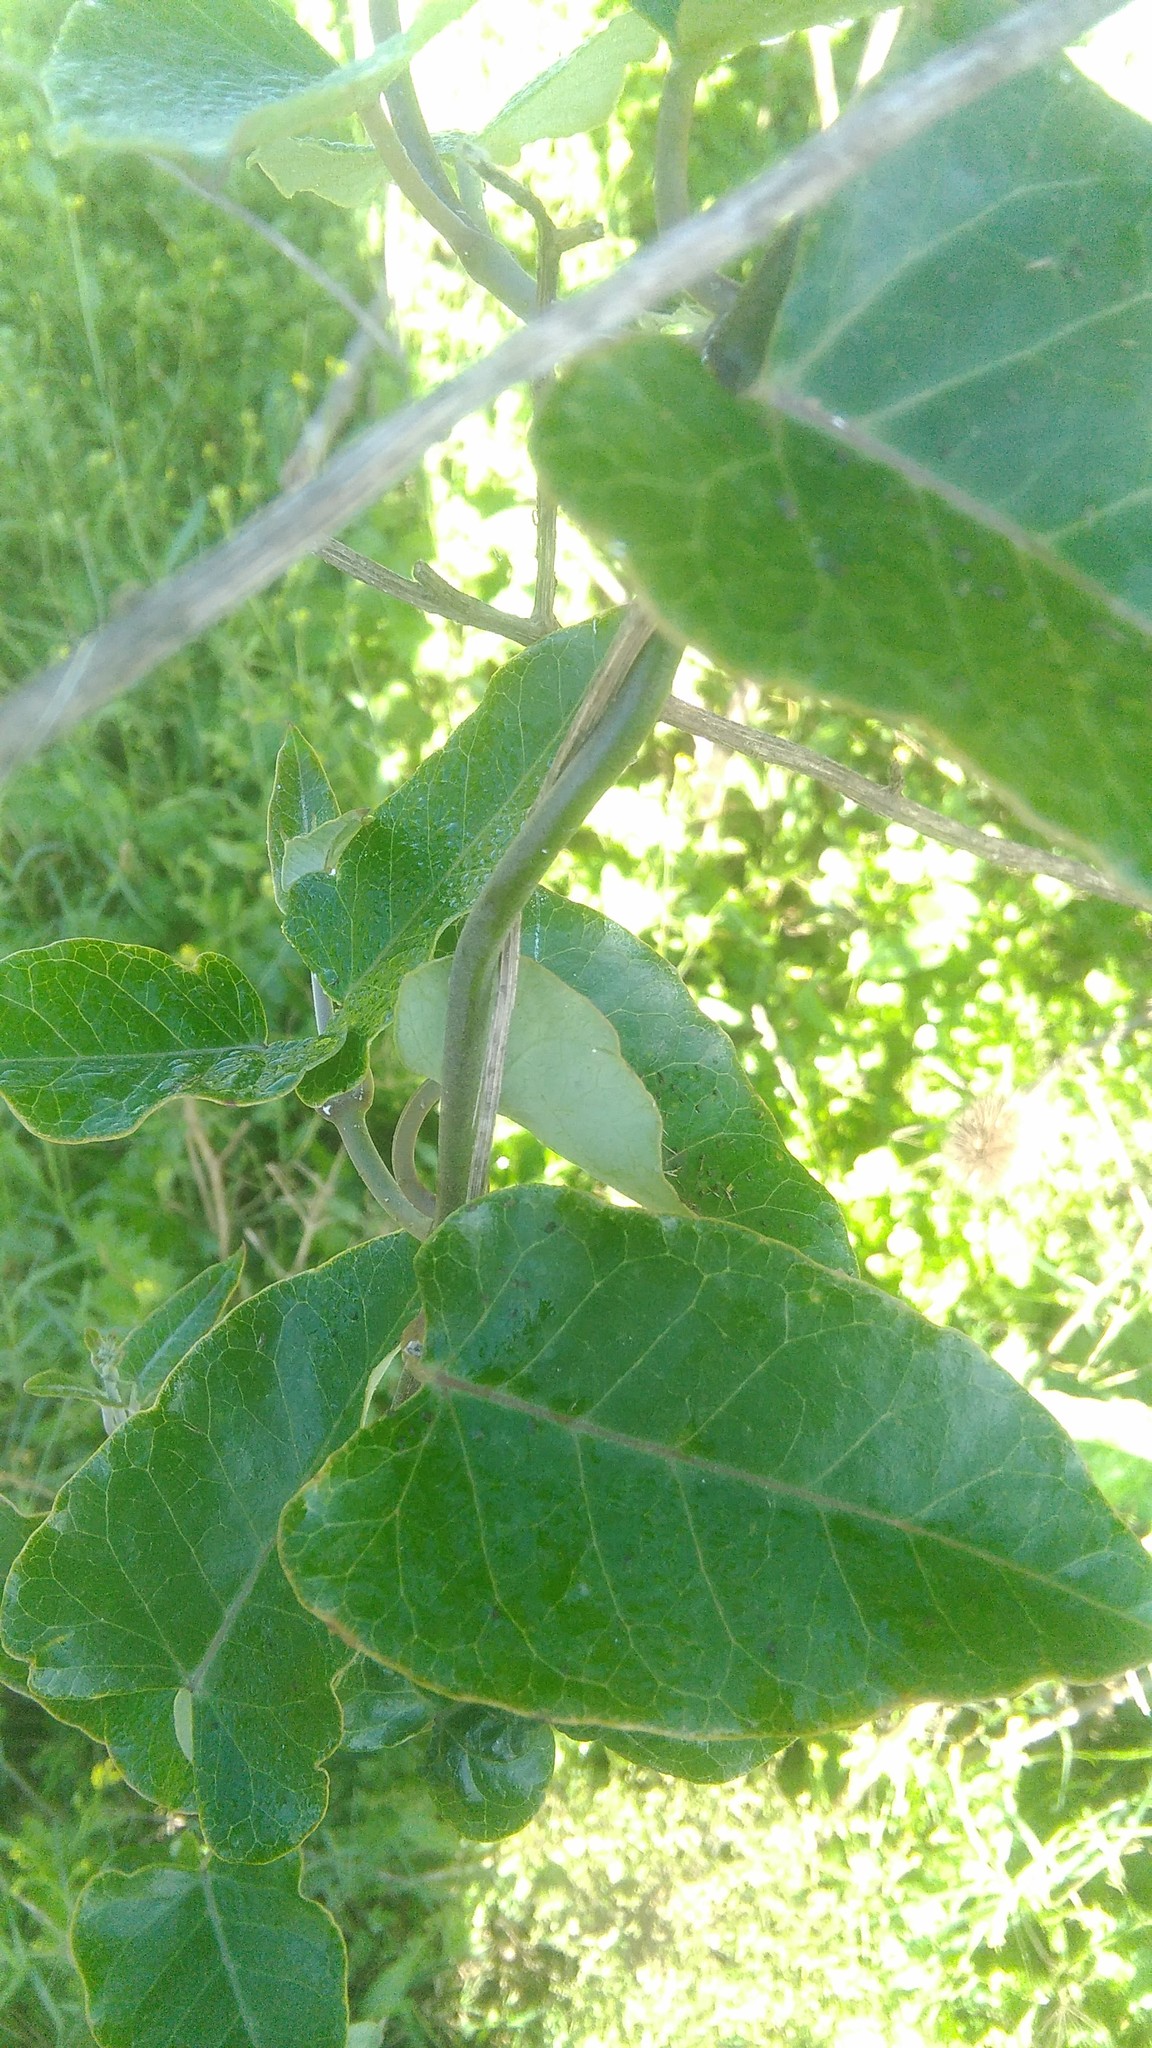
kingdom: Plantae
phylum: Tracheophyta
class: Magnoliopsida
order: Gentianales
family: Apocynaceae
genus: Araujia
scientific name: Araujia sericifera
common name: White bladderflower
